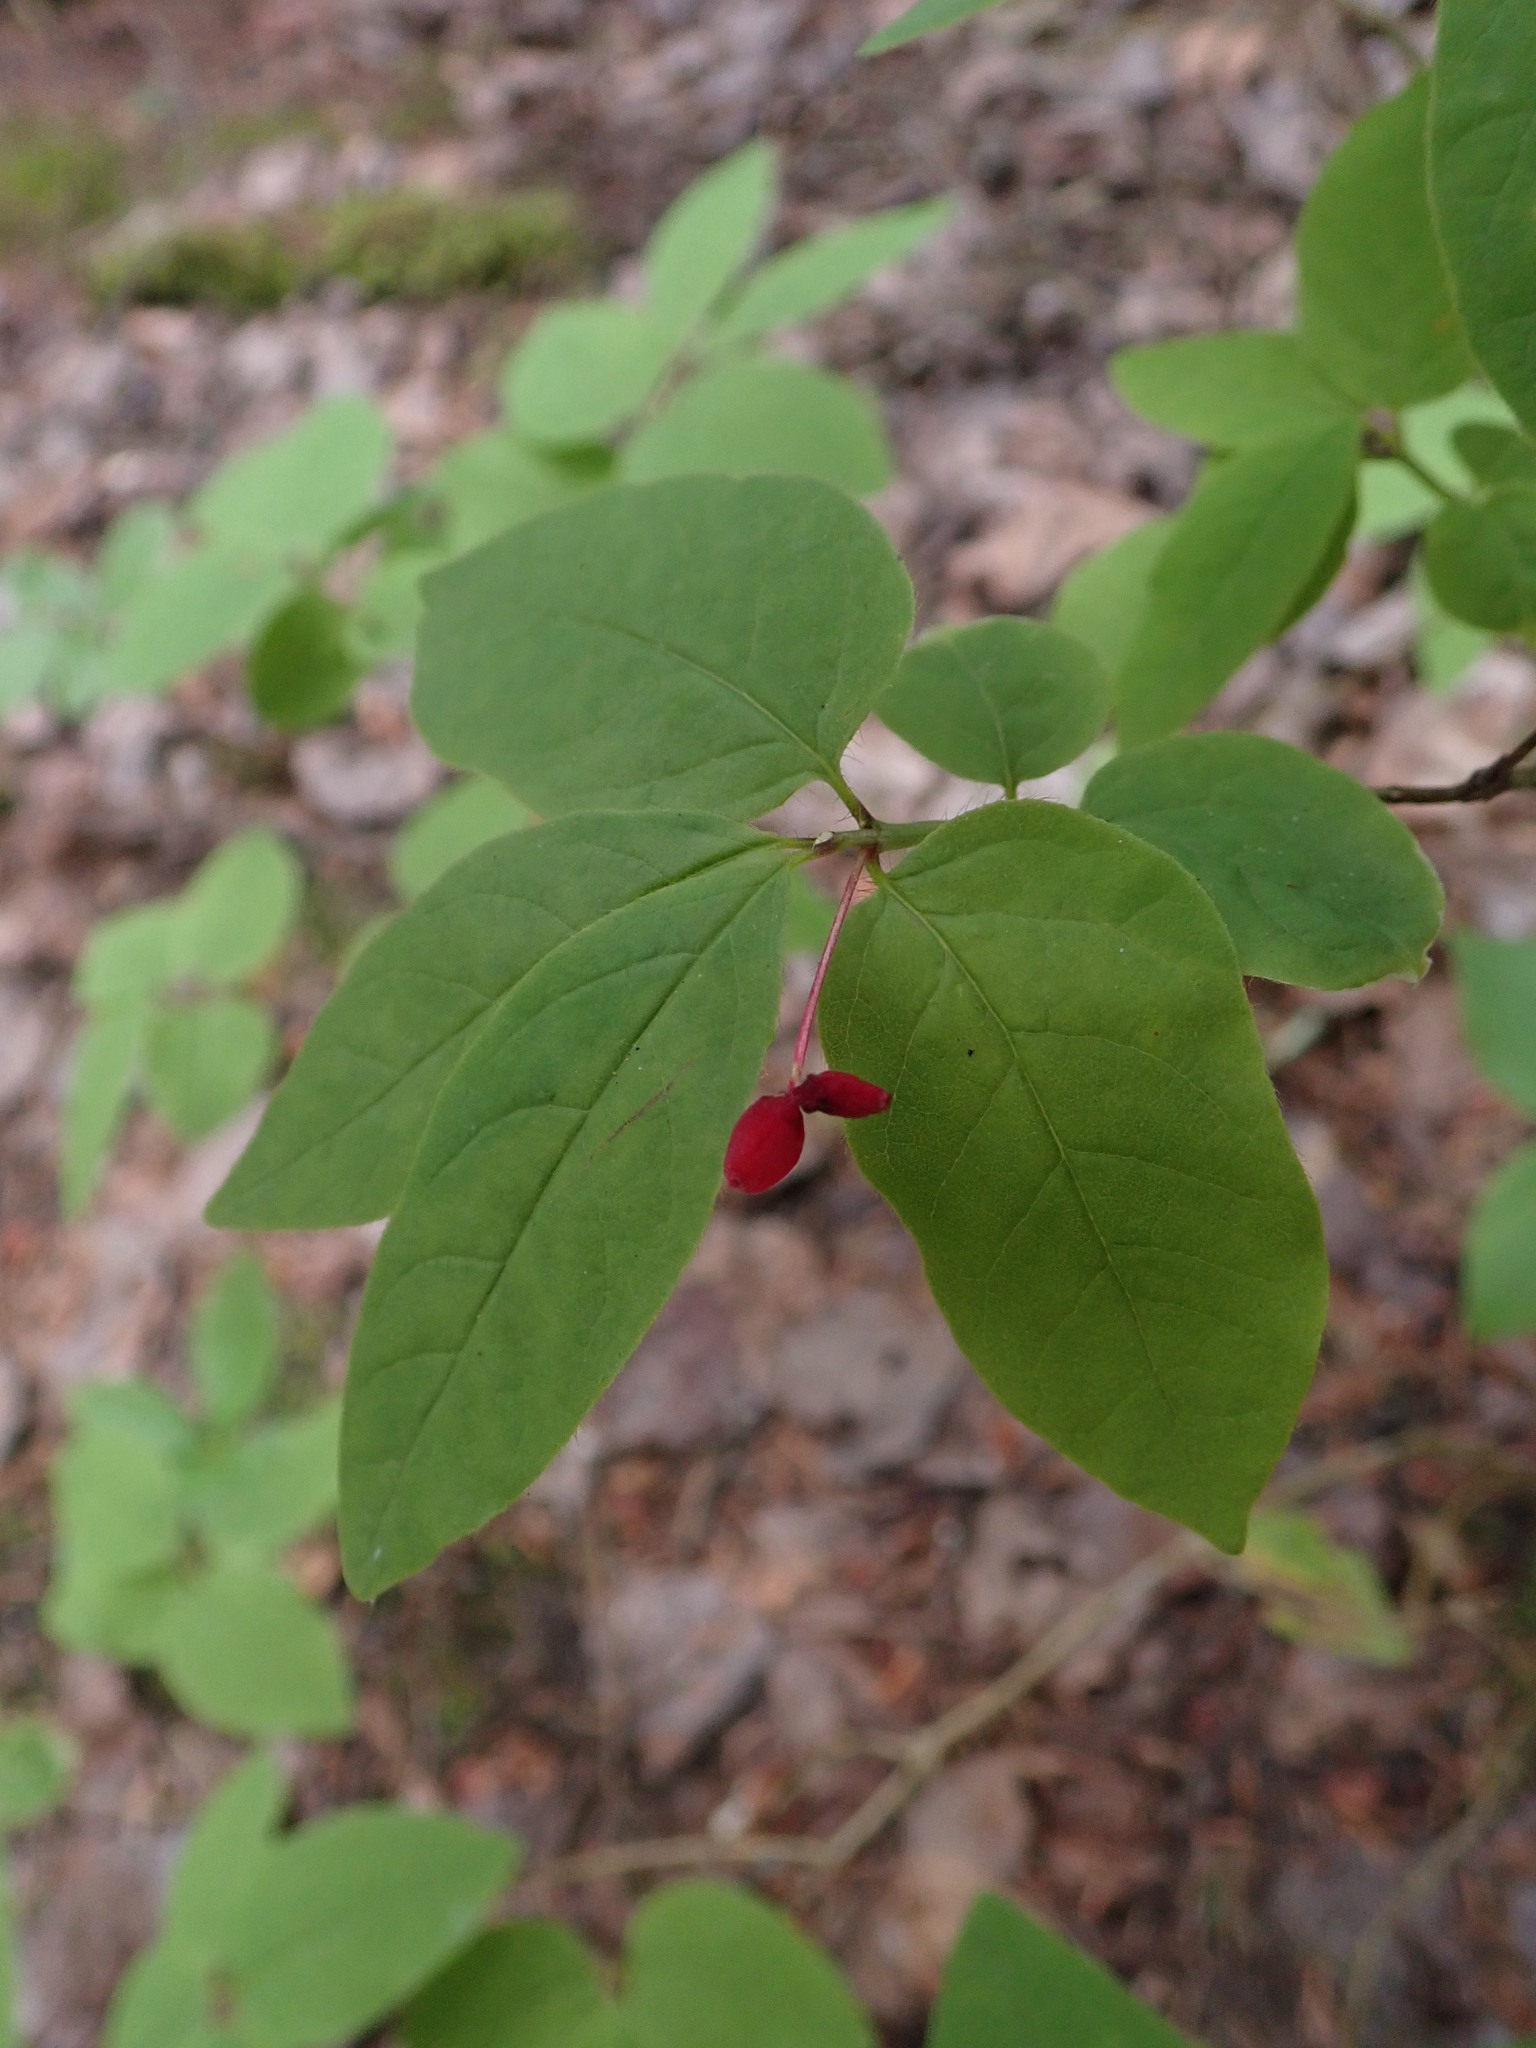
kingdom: Plantae
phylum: Tracheophyta
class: Magnoliopsida
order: Dipsacales
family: Caprifoliaceae
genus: Lonicera
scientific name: Lonicera canadensis
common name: American fly-honeysuckle
